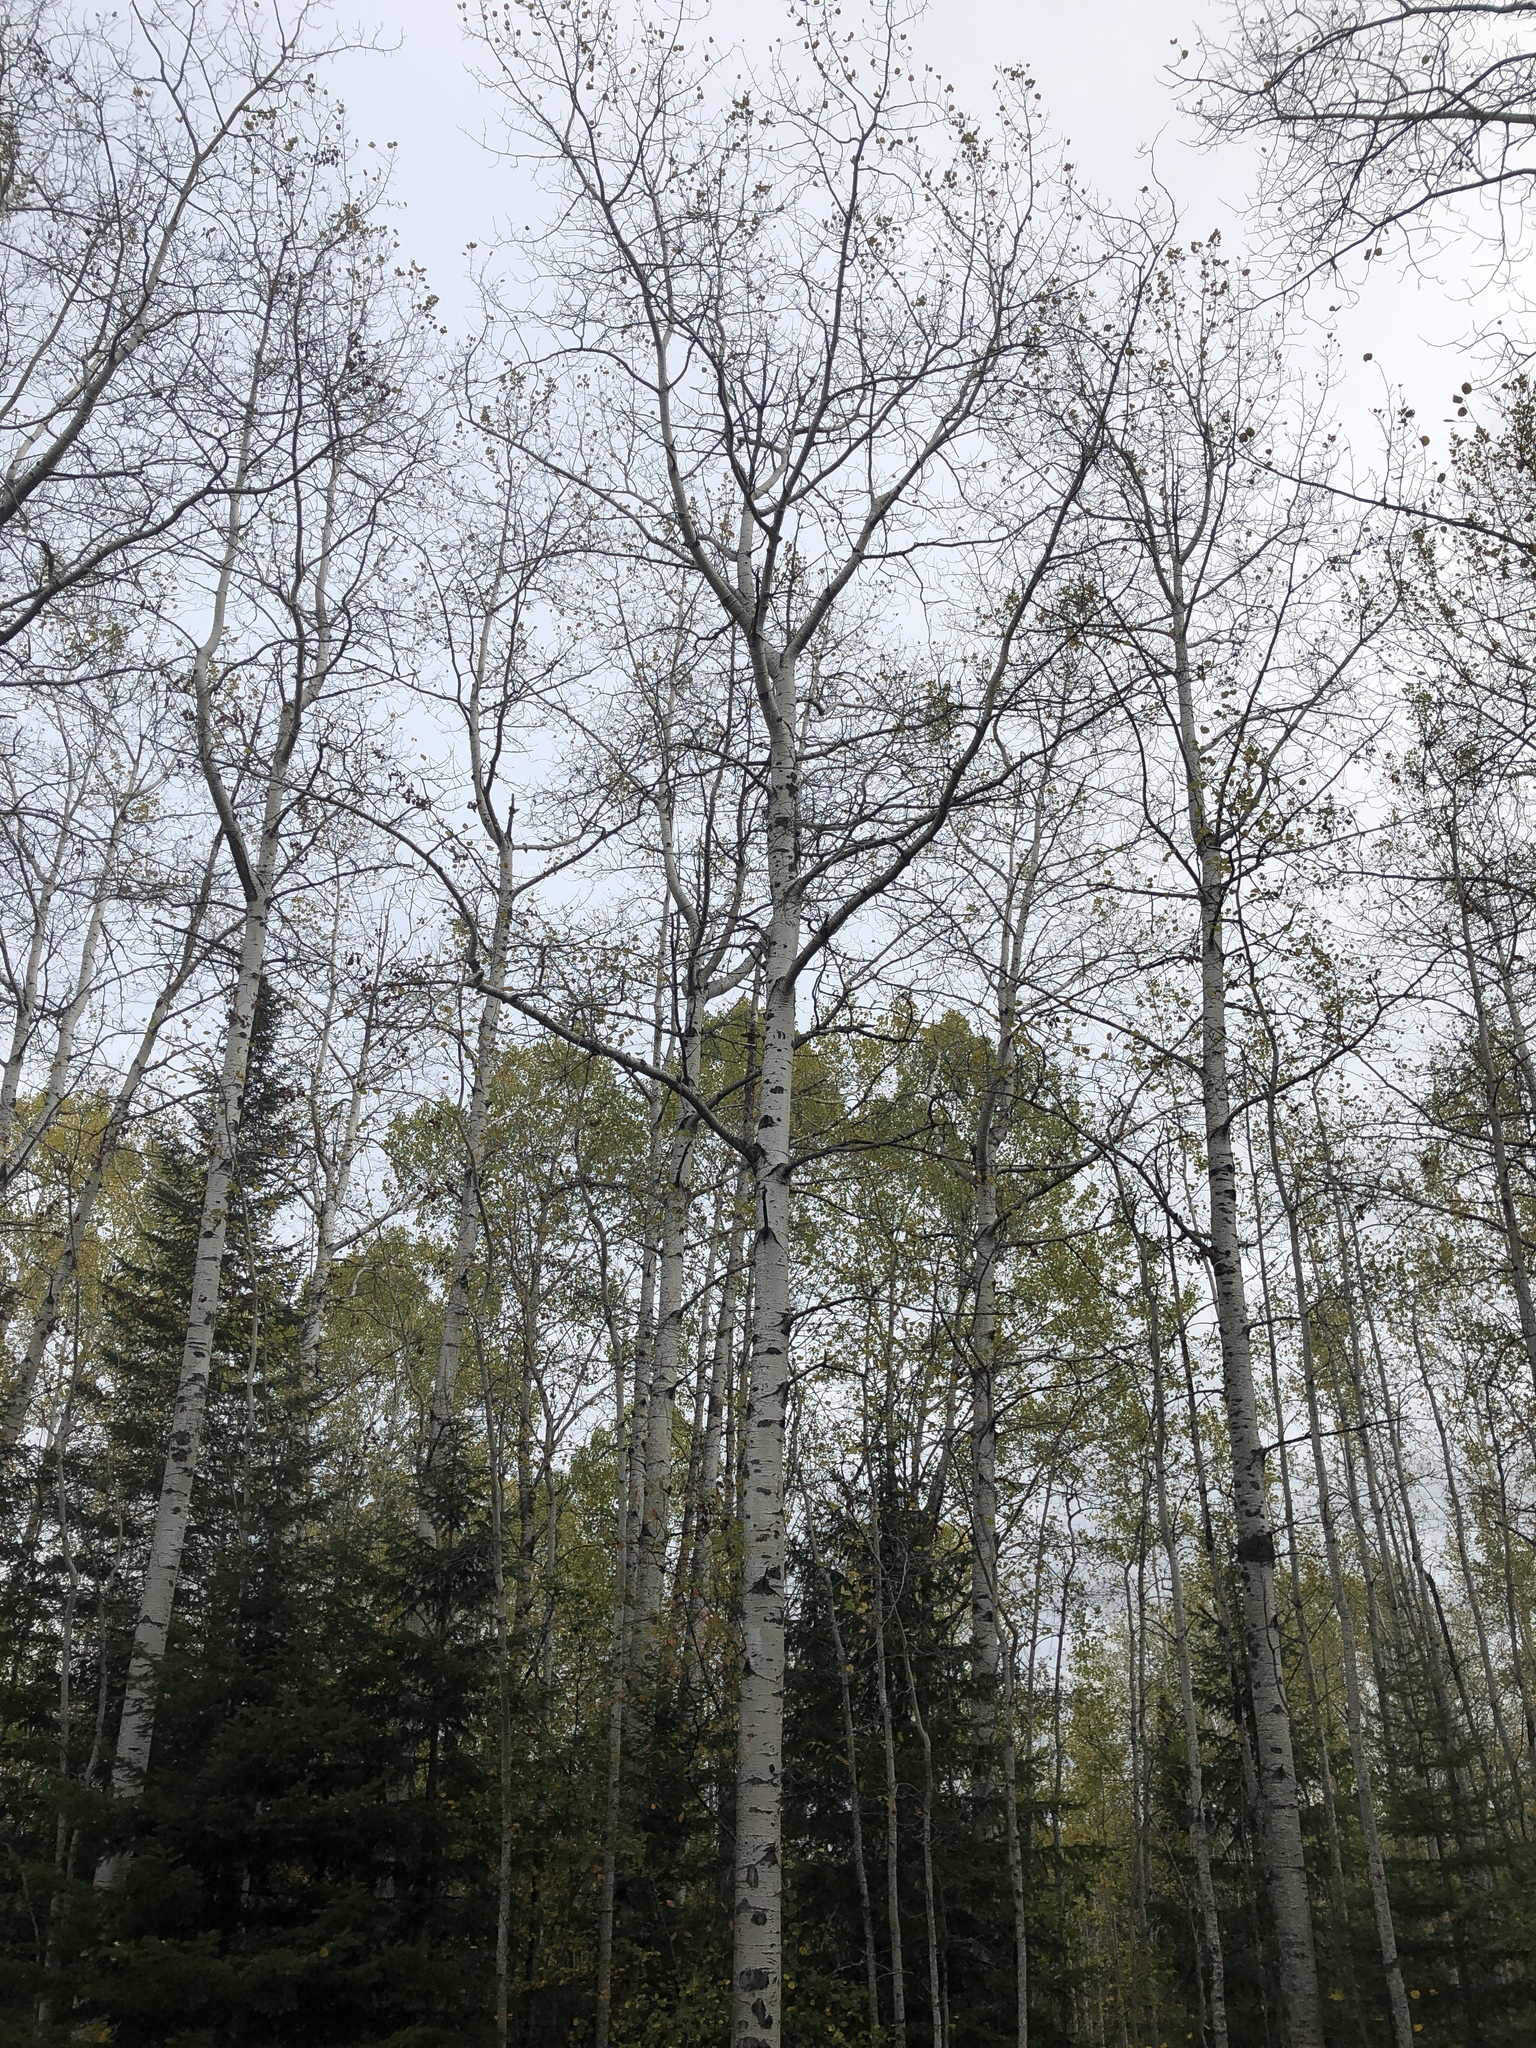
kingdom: Plantae
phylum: Tracheophyta
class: Magnoliopsida
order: Malpighiales
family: Salicaceae
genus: Populus
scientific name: Populus tremuloides
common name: Quaking aspen
